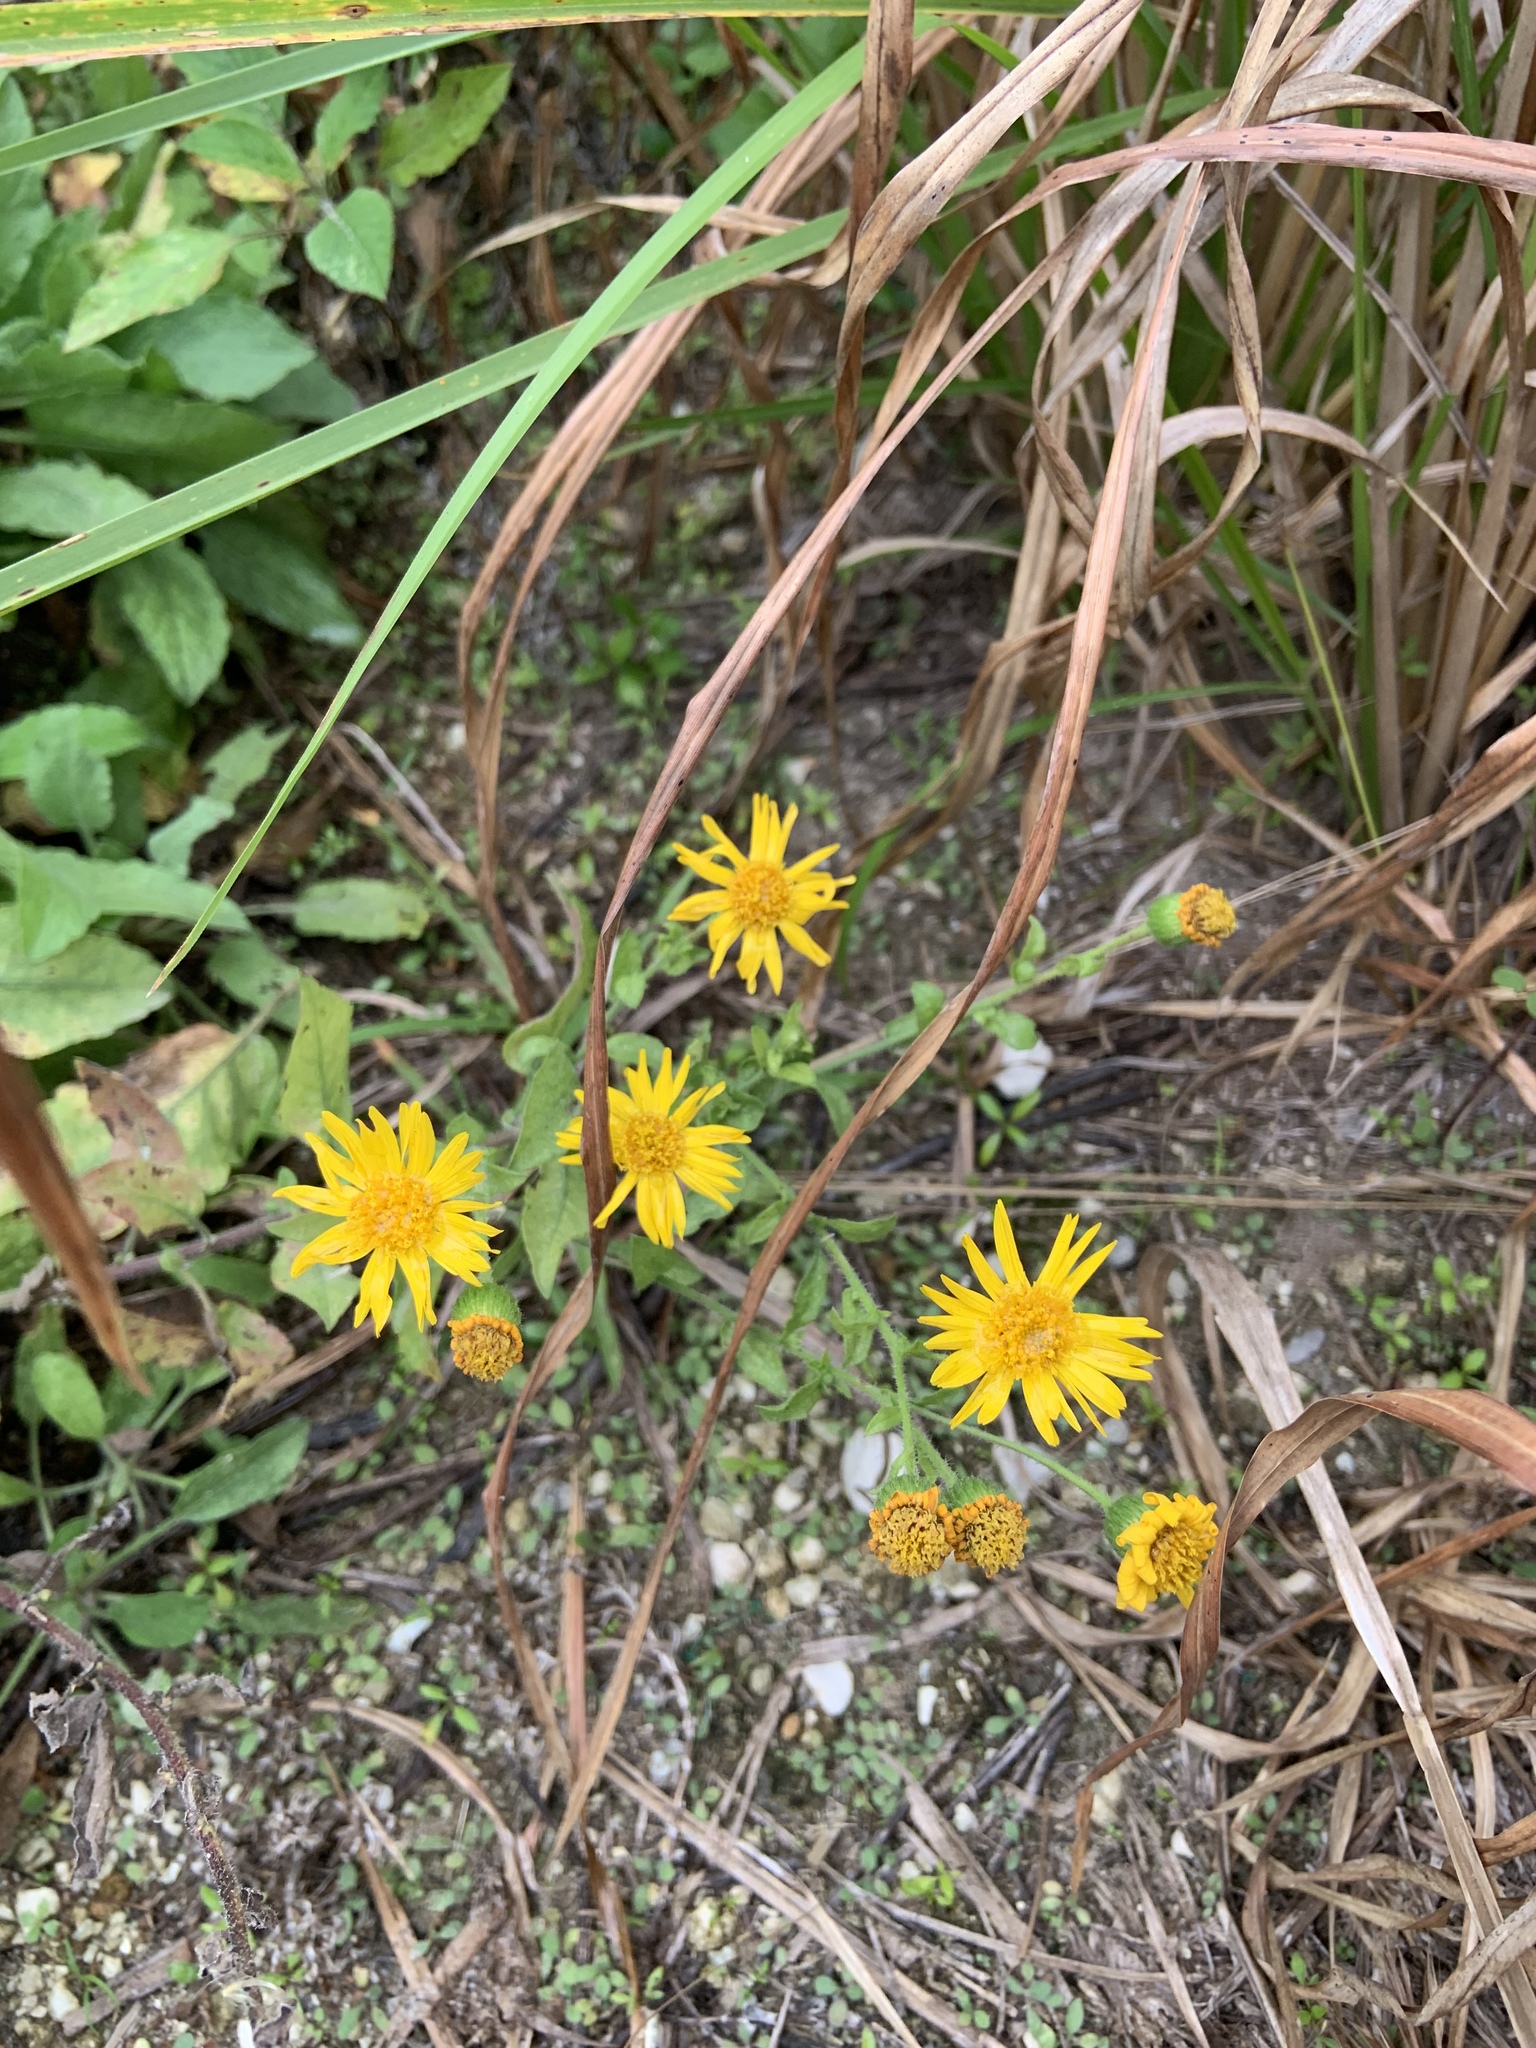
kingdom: Plantae
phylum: Tracheophyta
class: Magnoliopsida
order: Asterales
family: Asteraceae
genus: Heterotheca
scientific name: Heterotheca subaxillaris
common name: Camphorweed
